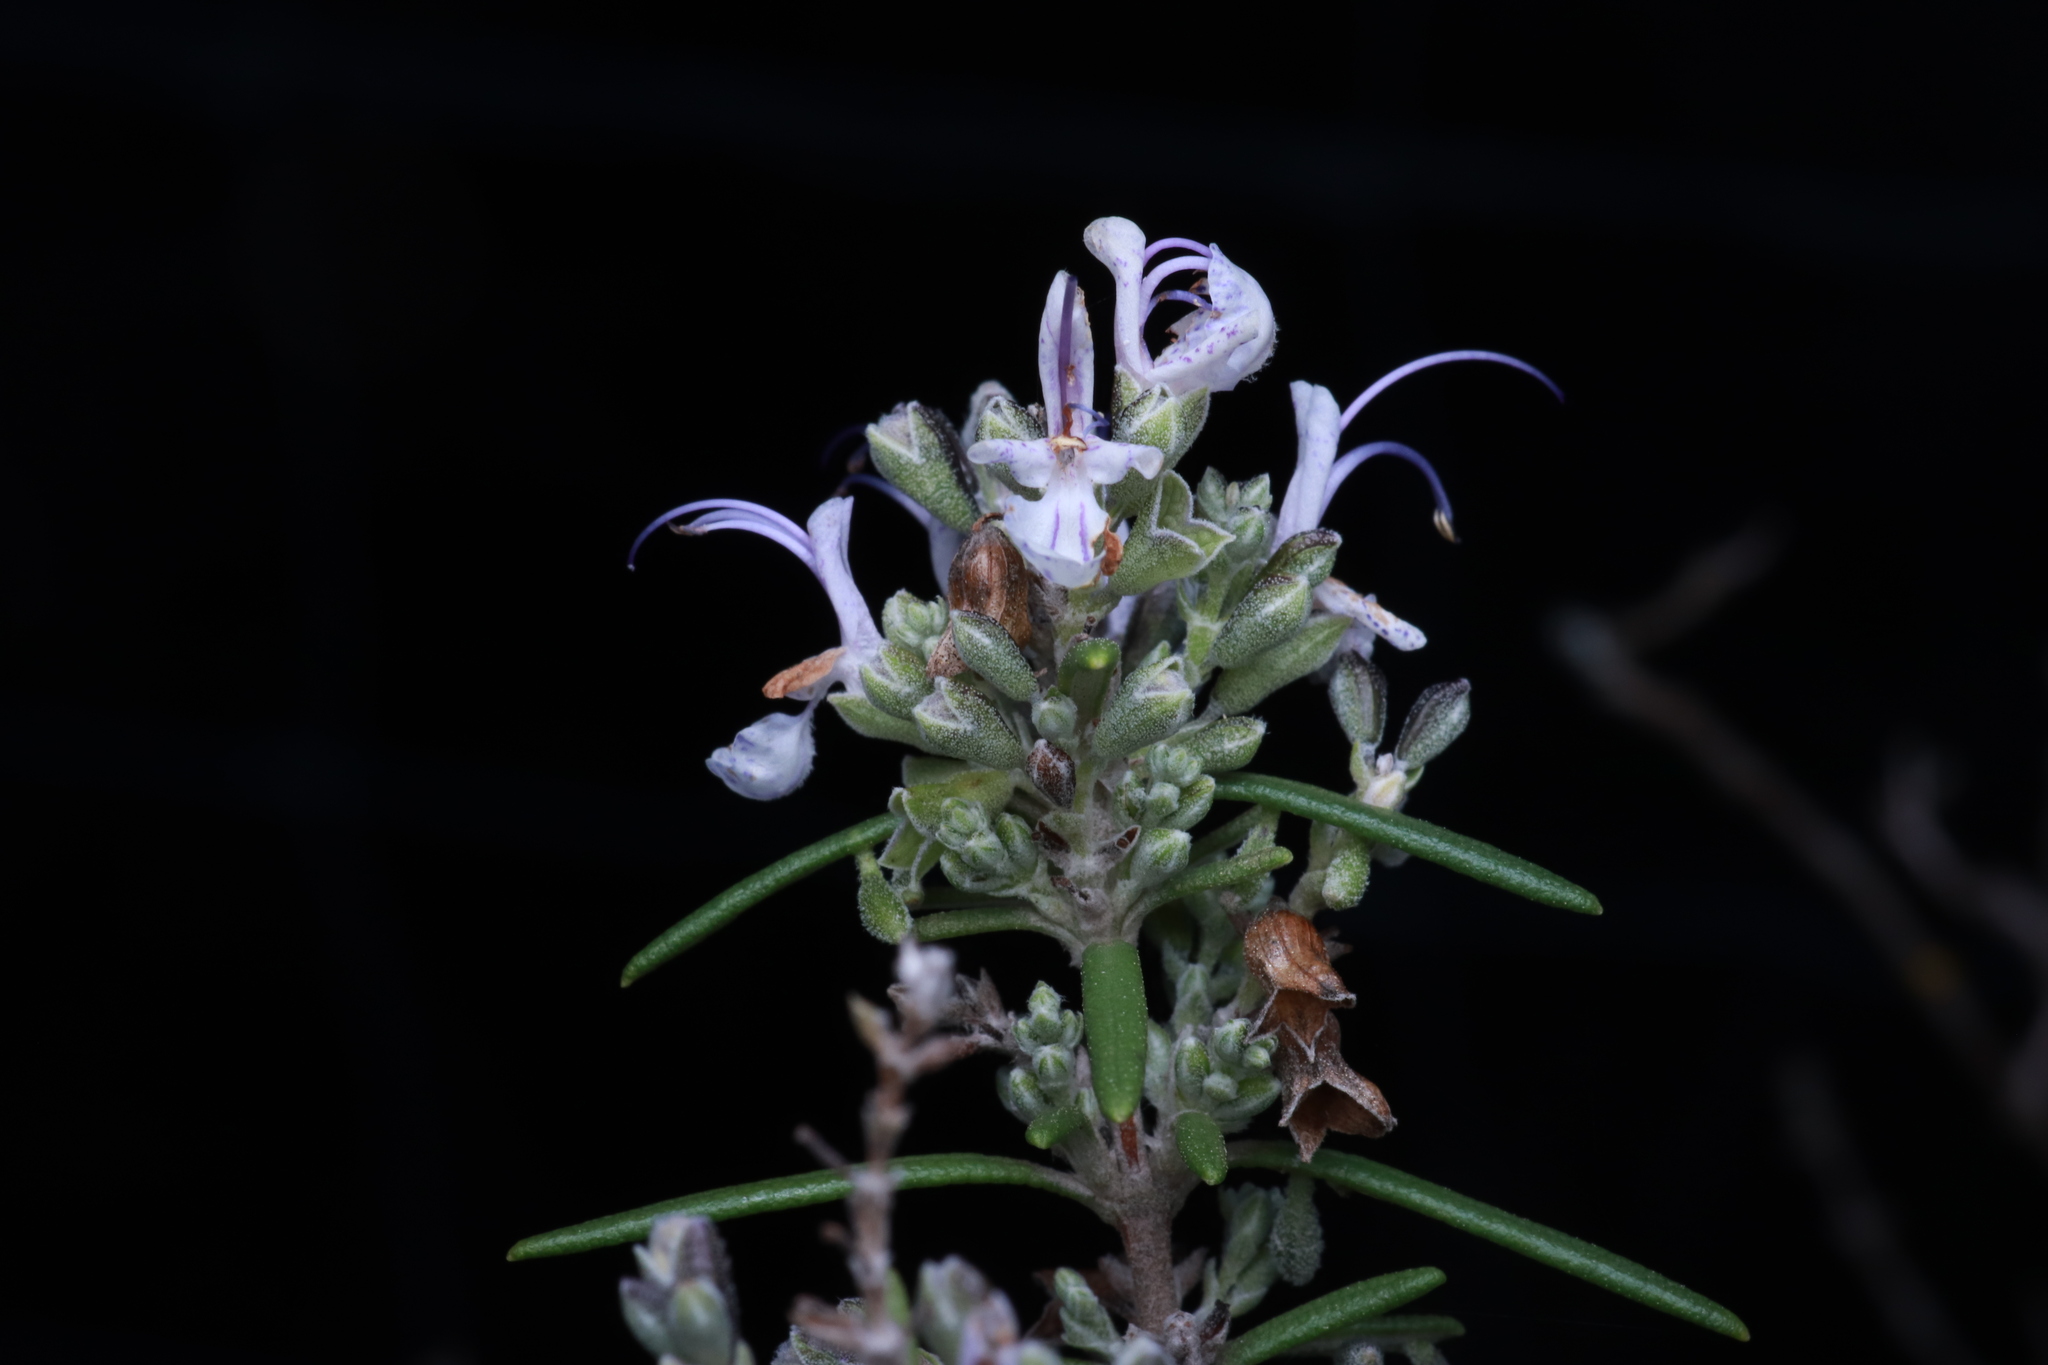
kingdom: Plantae
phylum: Tracheophyta
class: Magnoliopsida
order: Lamiales
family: Lamiaceae
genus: Salvia
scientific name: Salvia rosmarinus
